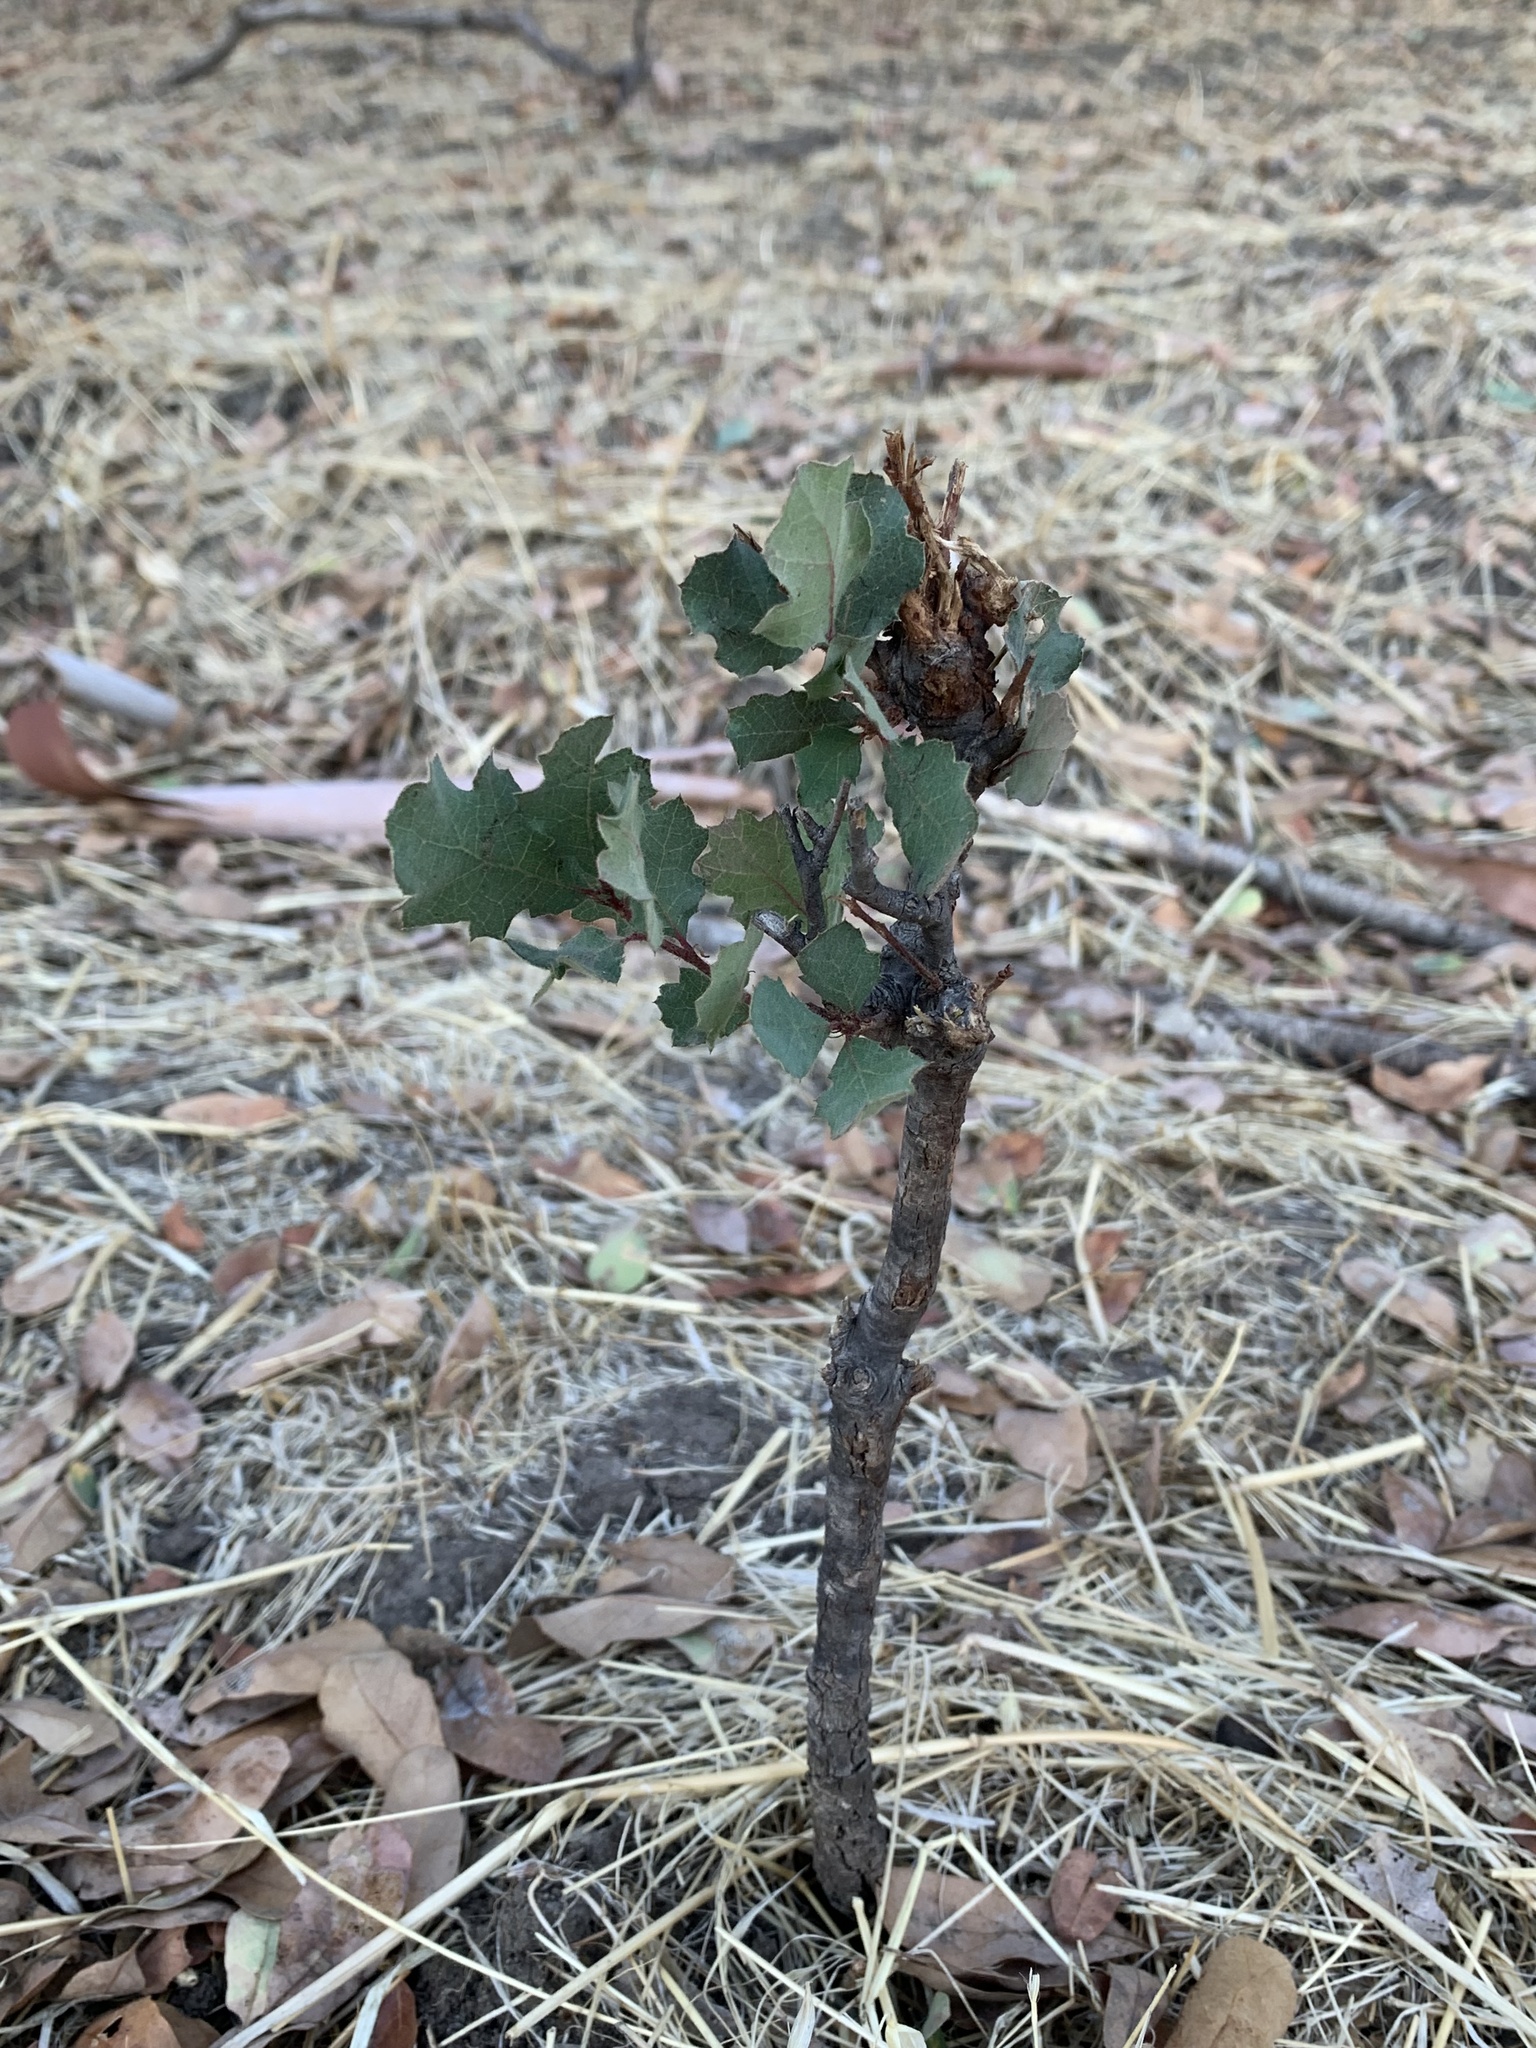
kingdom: Plantae
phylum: Tracheophyta
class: Magnoliopsida
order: Fagales
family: Fagaceae
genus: Quercus
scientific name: Quercus douglasii
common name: Blue oak
